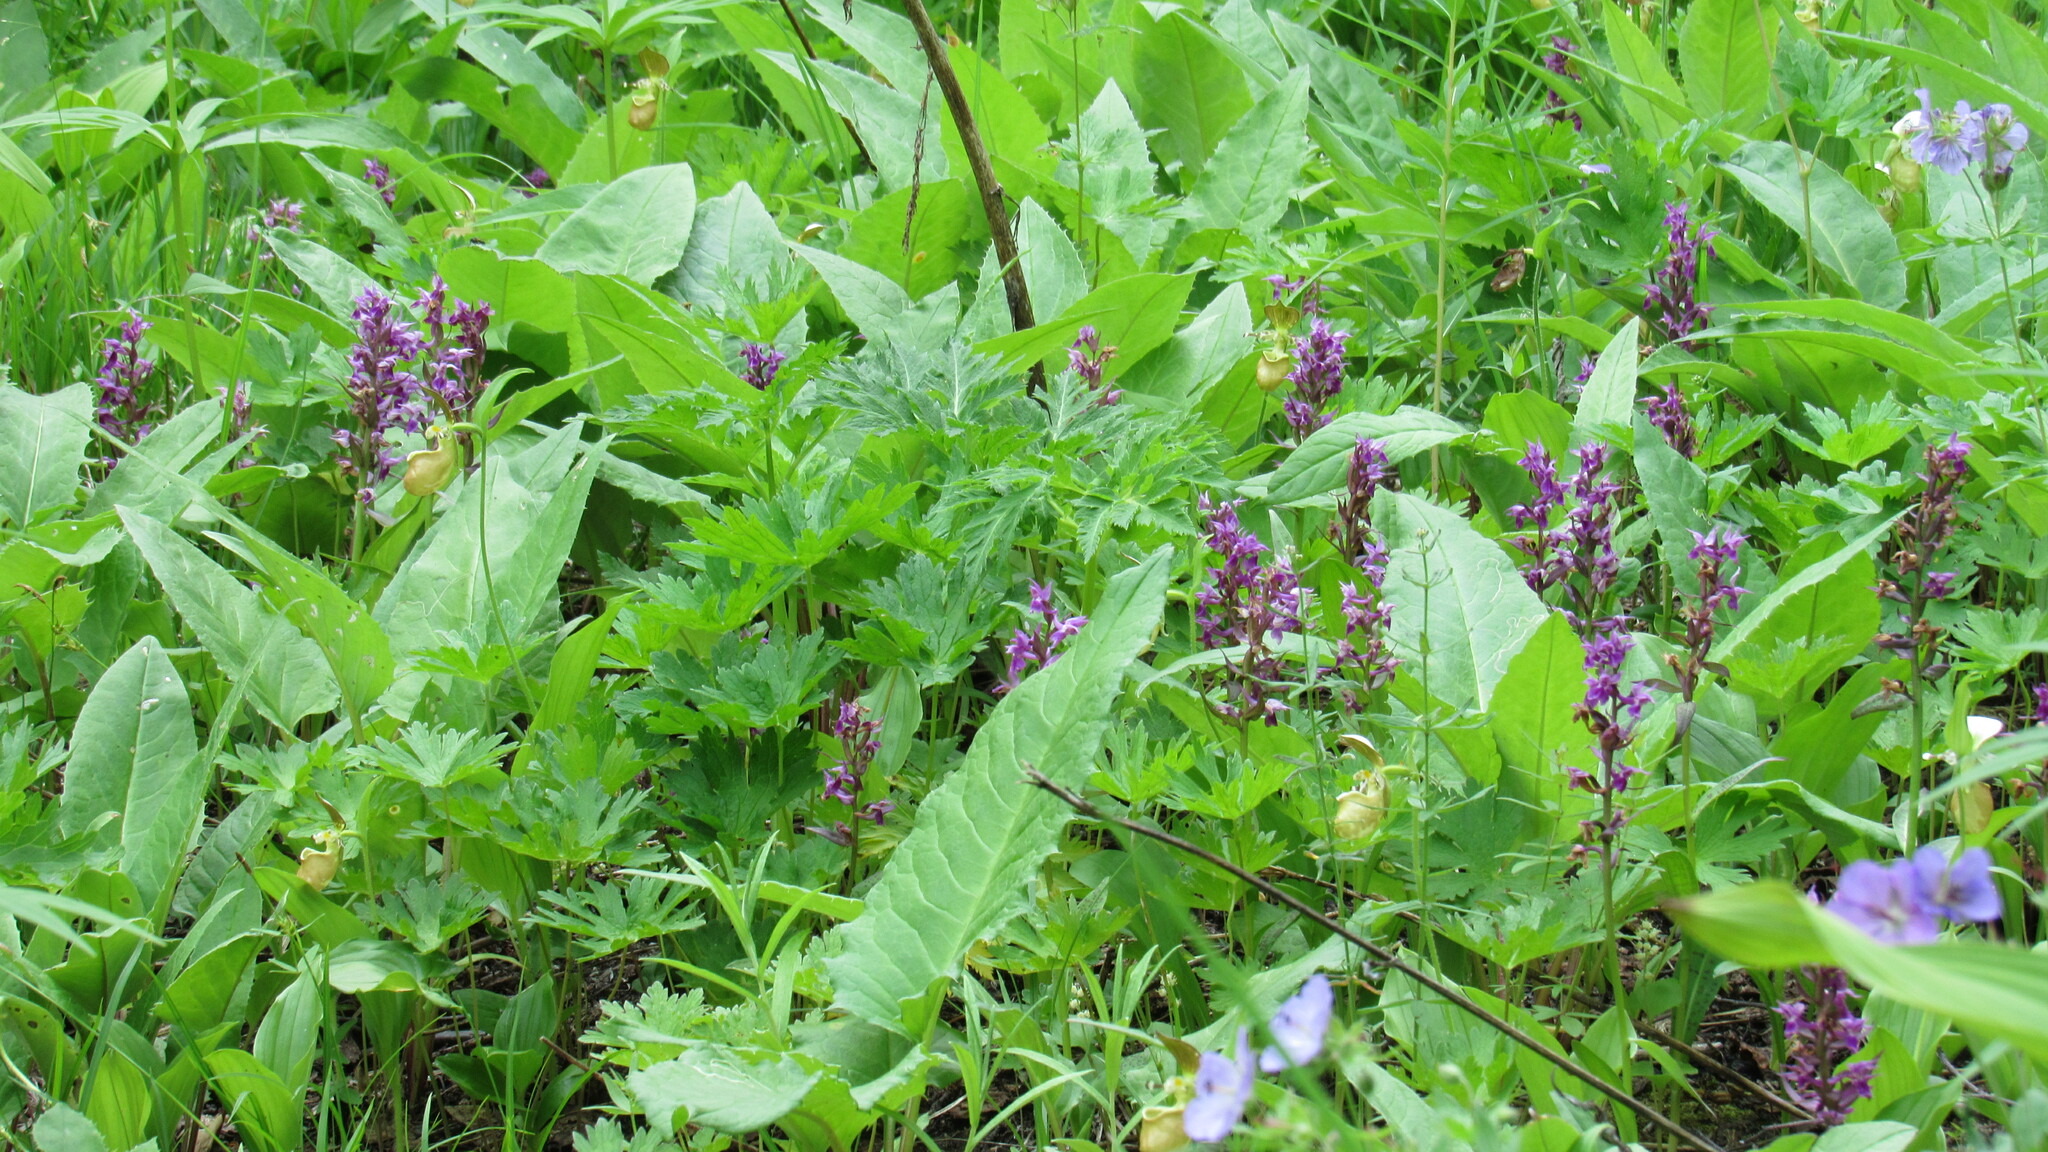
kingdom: Plantae
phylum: Tracheophyta
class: Liliopsida
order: Asparagales
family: Orchidaceae
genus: Dactylorhiza
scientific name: Dactylorhiza aristata
